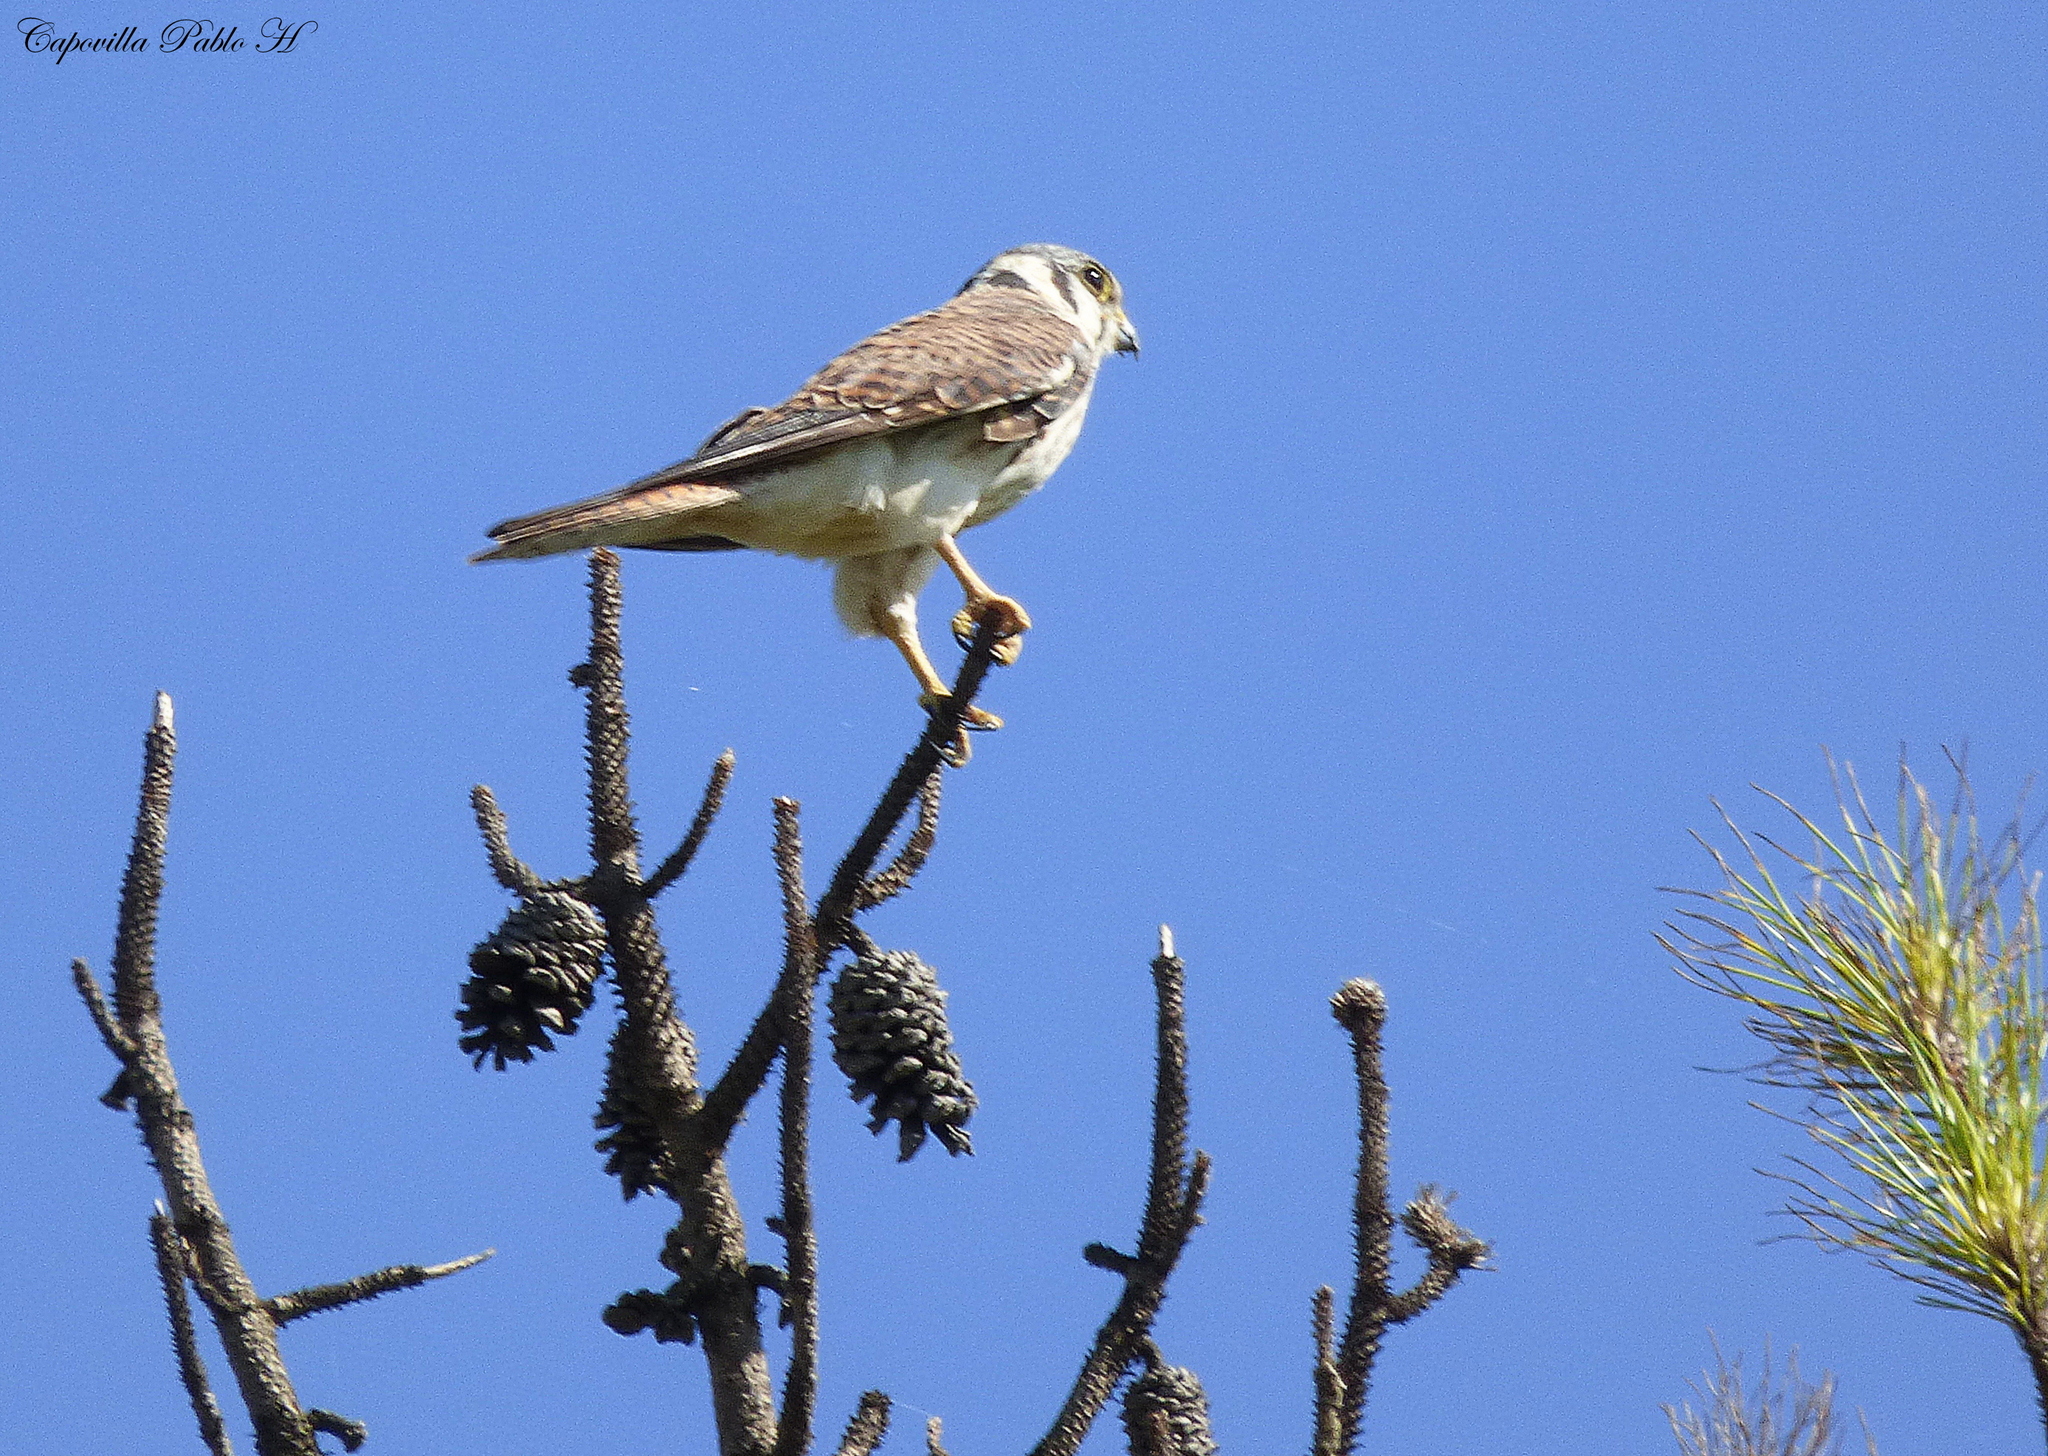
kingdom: Animalia
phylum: Chordata
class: Aves
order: Falconiformes
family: Falconidae
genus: Falco
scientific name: Falco sparverius
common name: American kestrel
